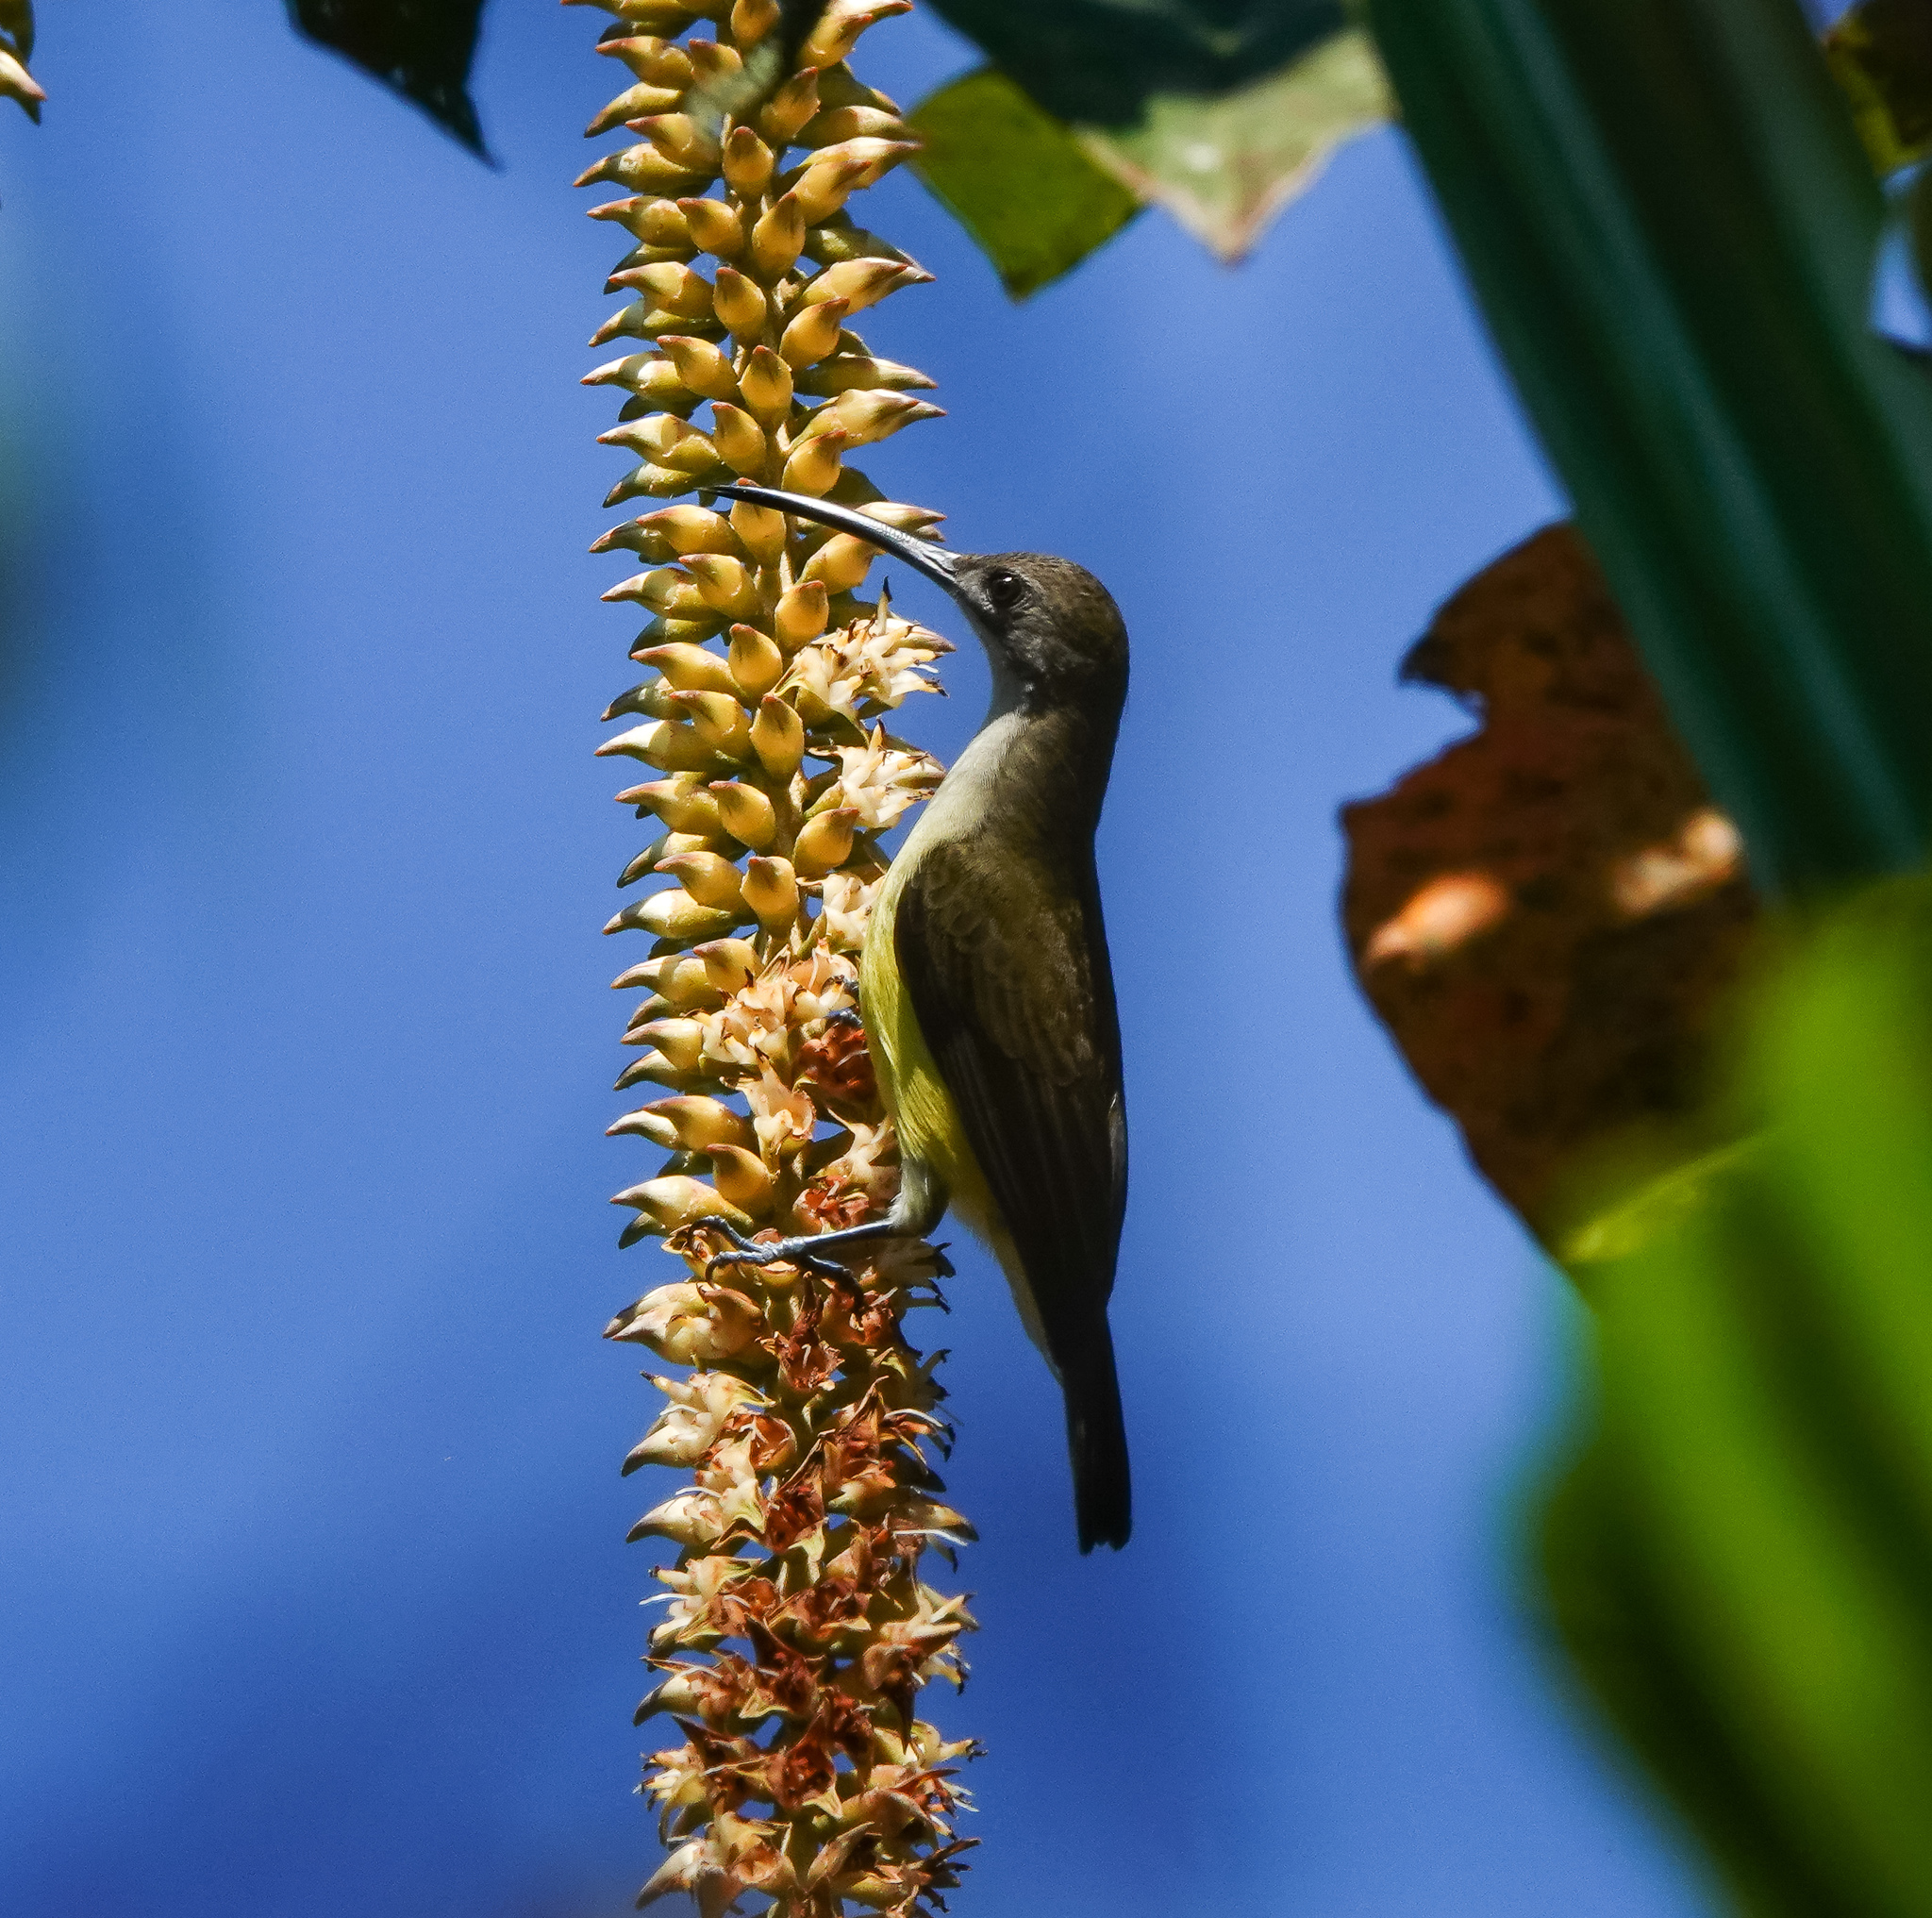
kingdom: Animalia
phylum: Chordata
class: Aves
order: Passeriformes
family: Nectariniidae
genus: Arachnothera
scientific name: Arachnothera longirostra
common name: Little spiderhunter
